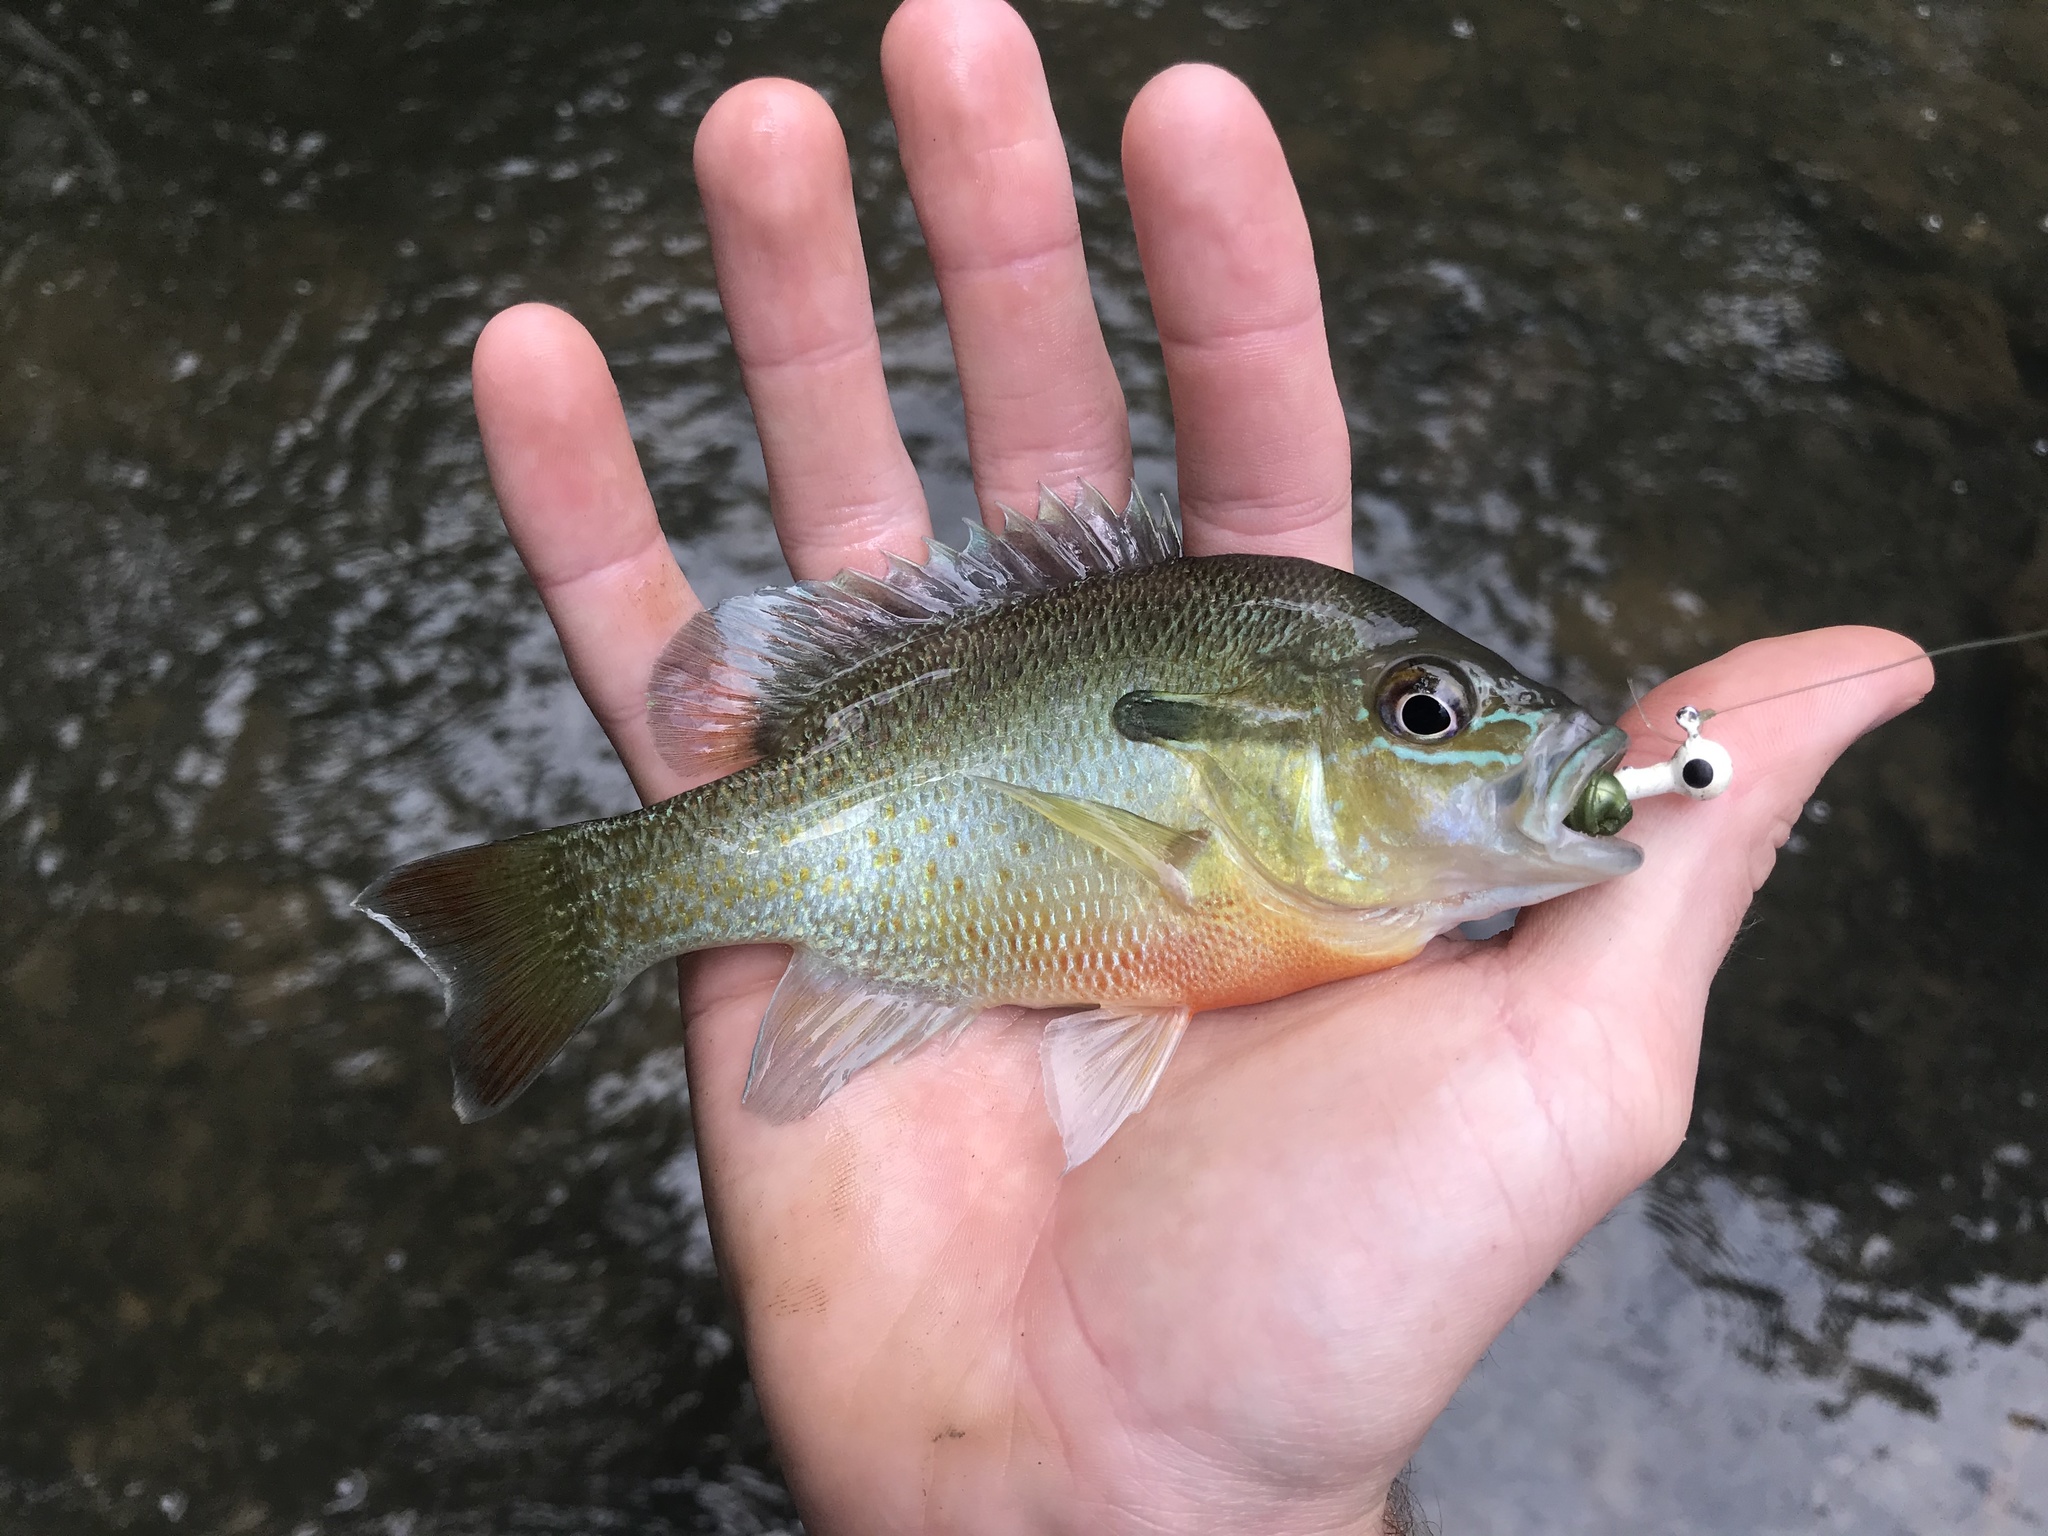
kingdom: Animalia
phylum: Chordata
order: Perciformes
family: Centrarchidae
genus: Lepomis
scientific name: Lepomis auritus
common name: Redbreast sunfish
